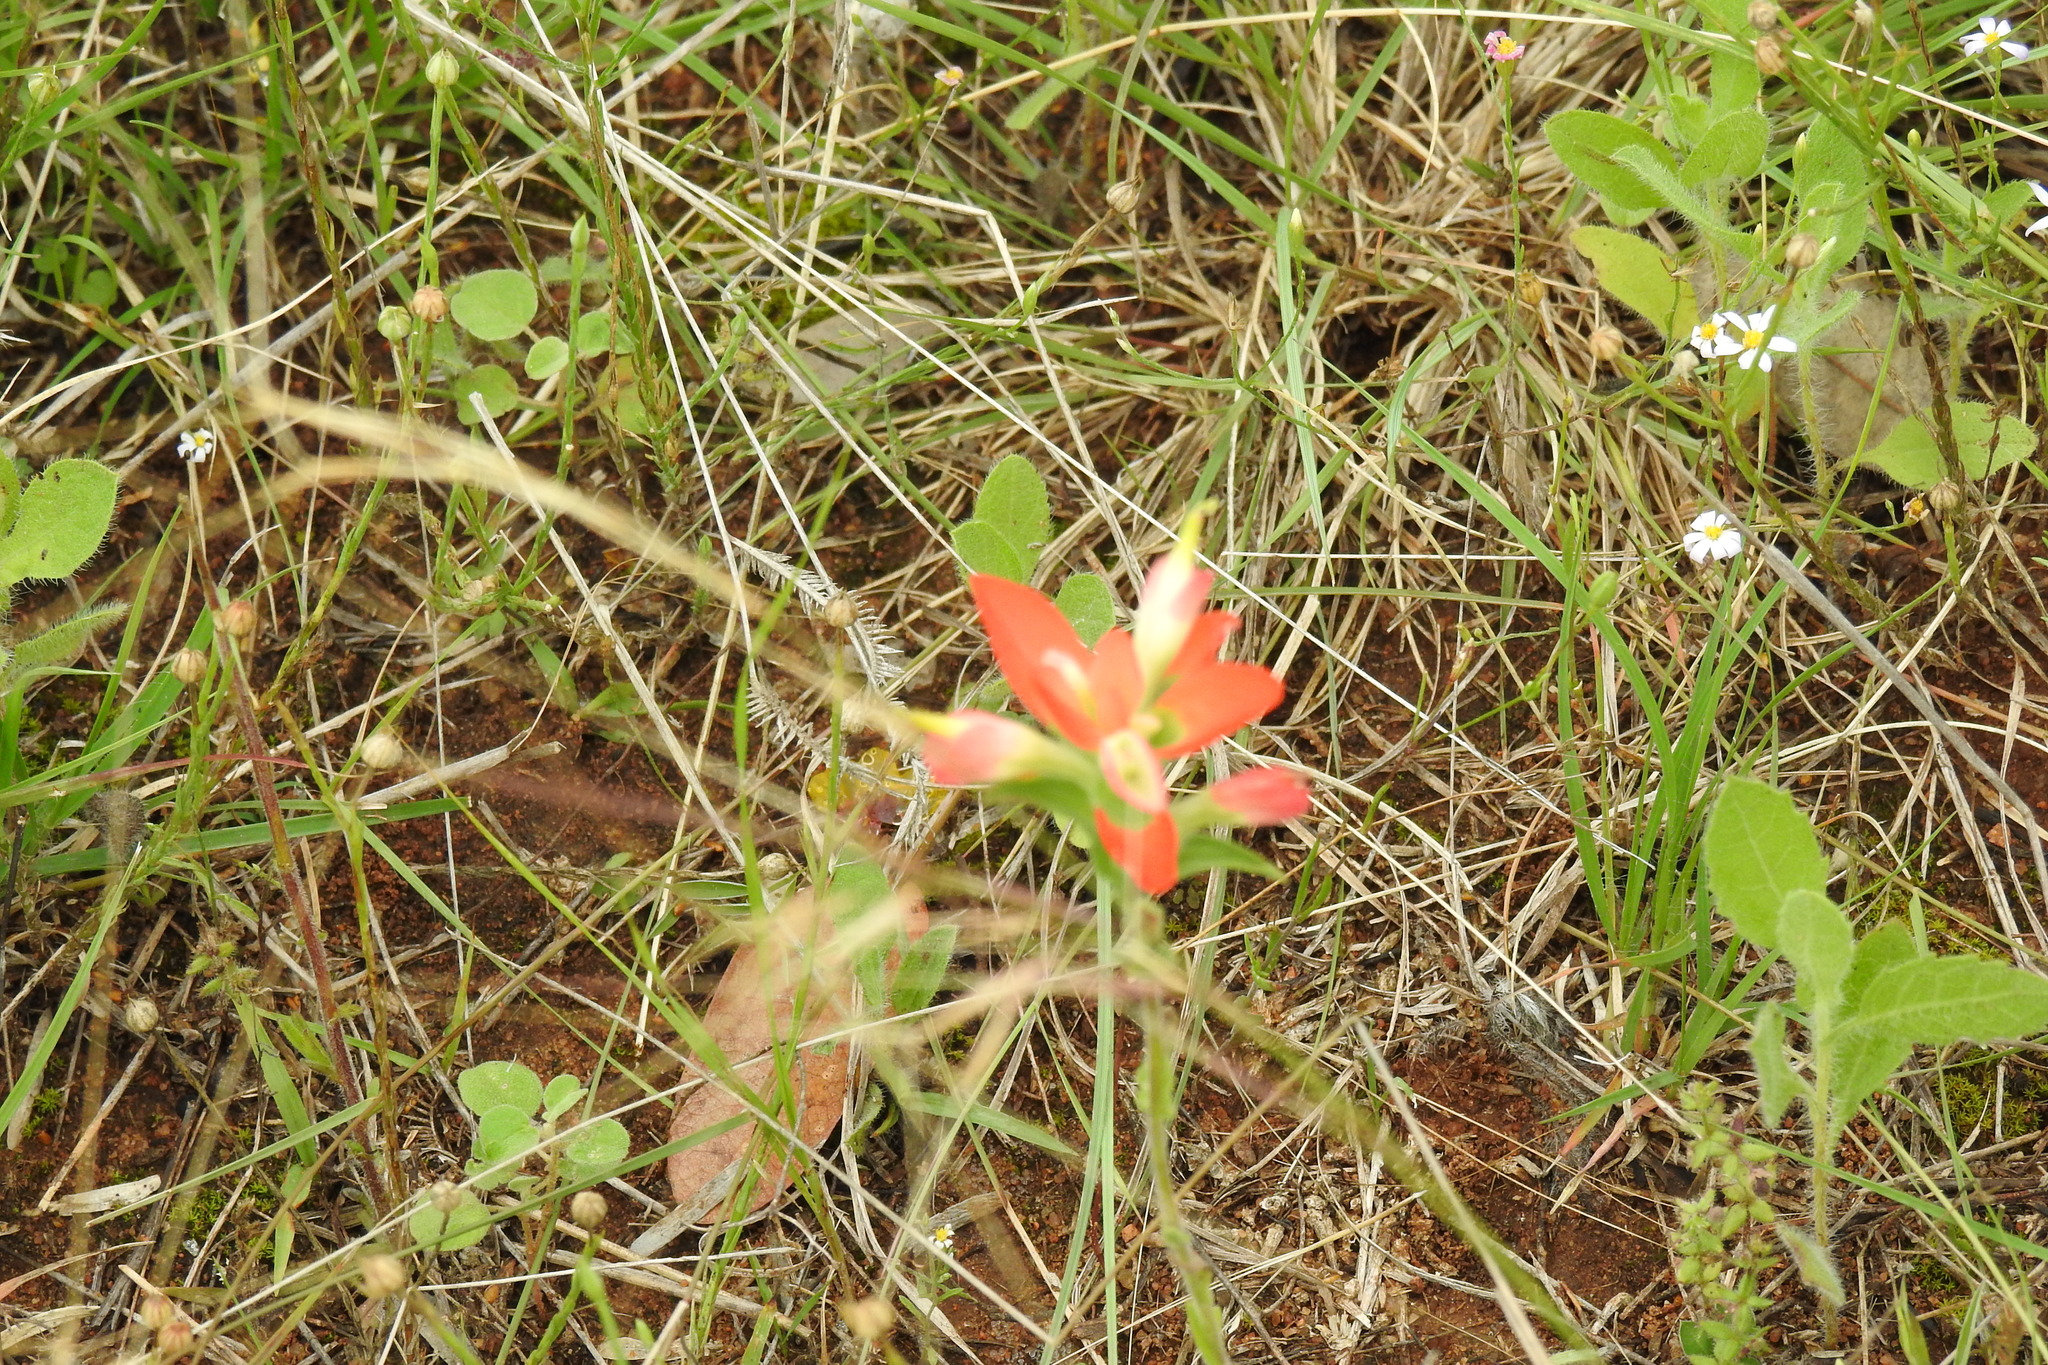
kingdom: Plantae
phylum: Tracheophyta
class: Magnoliopsida
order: Lamiales
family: Orobanchaceae
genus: Castilleja
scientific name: Castilleja indivisa
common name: Texas paintbrush
